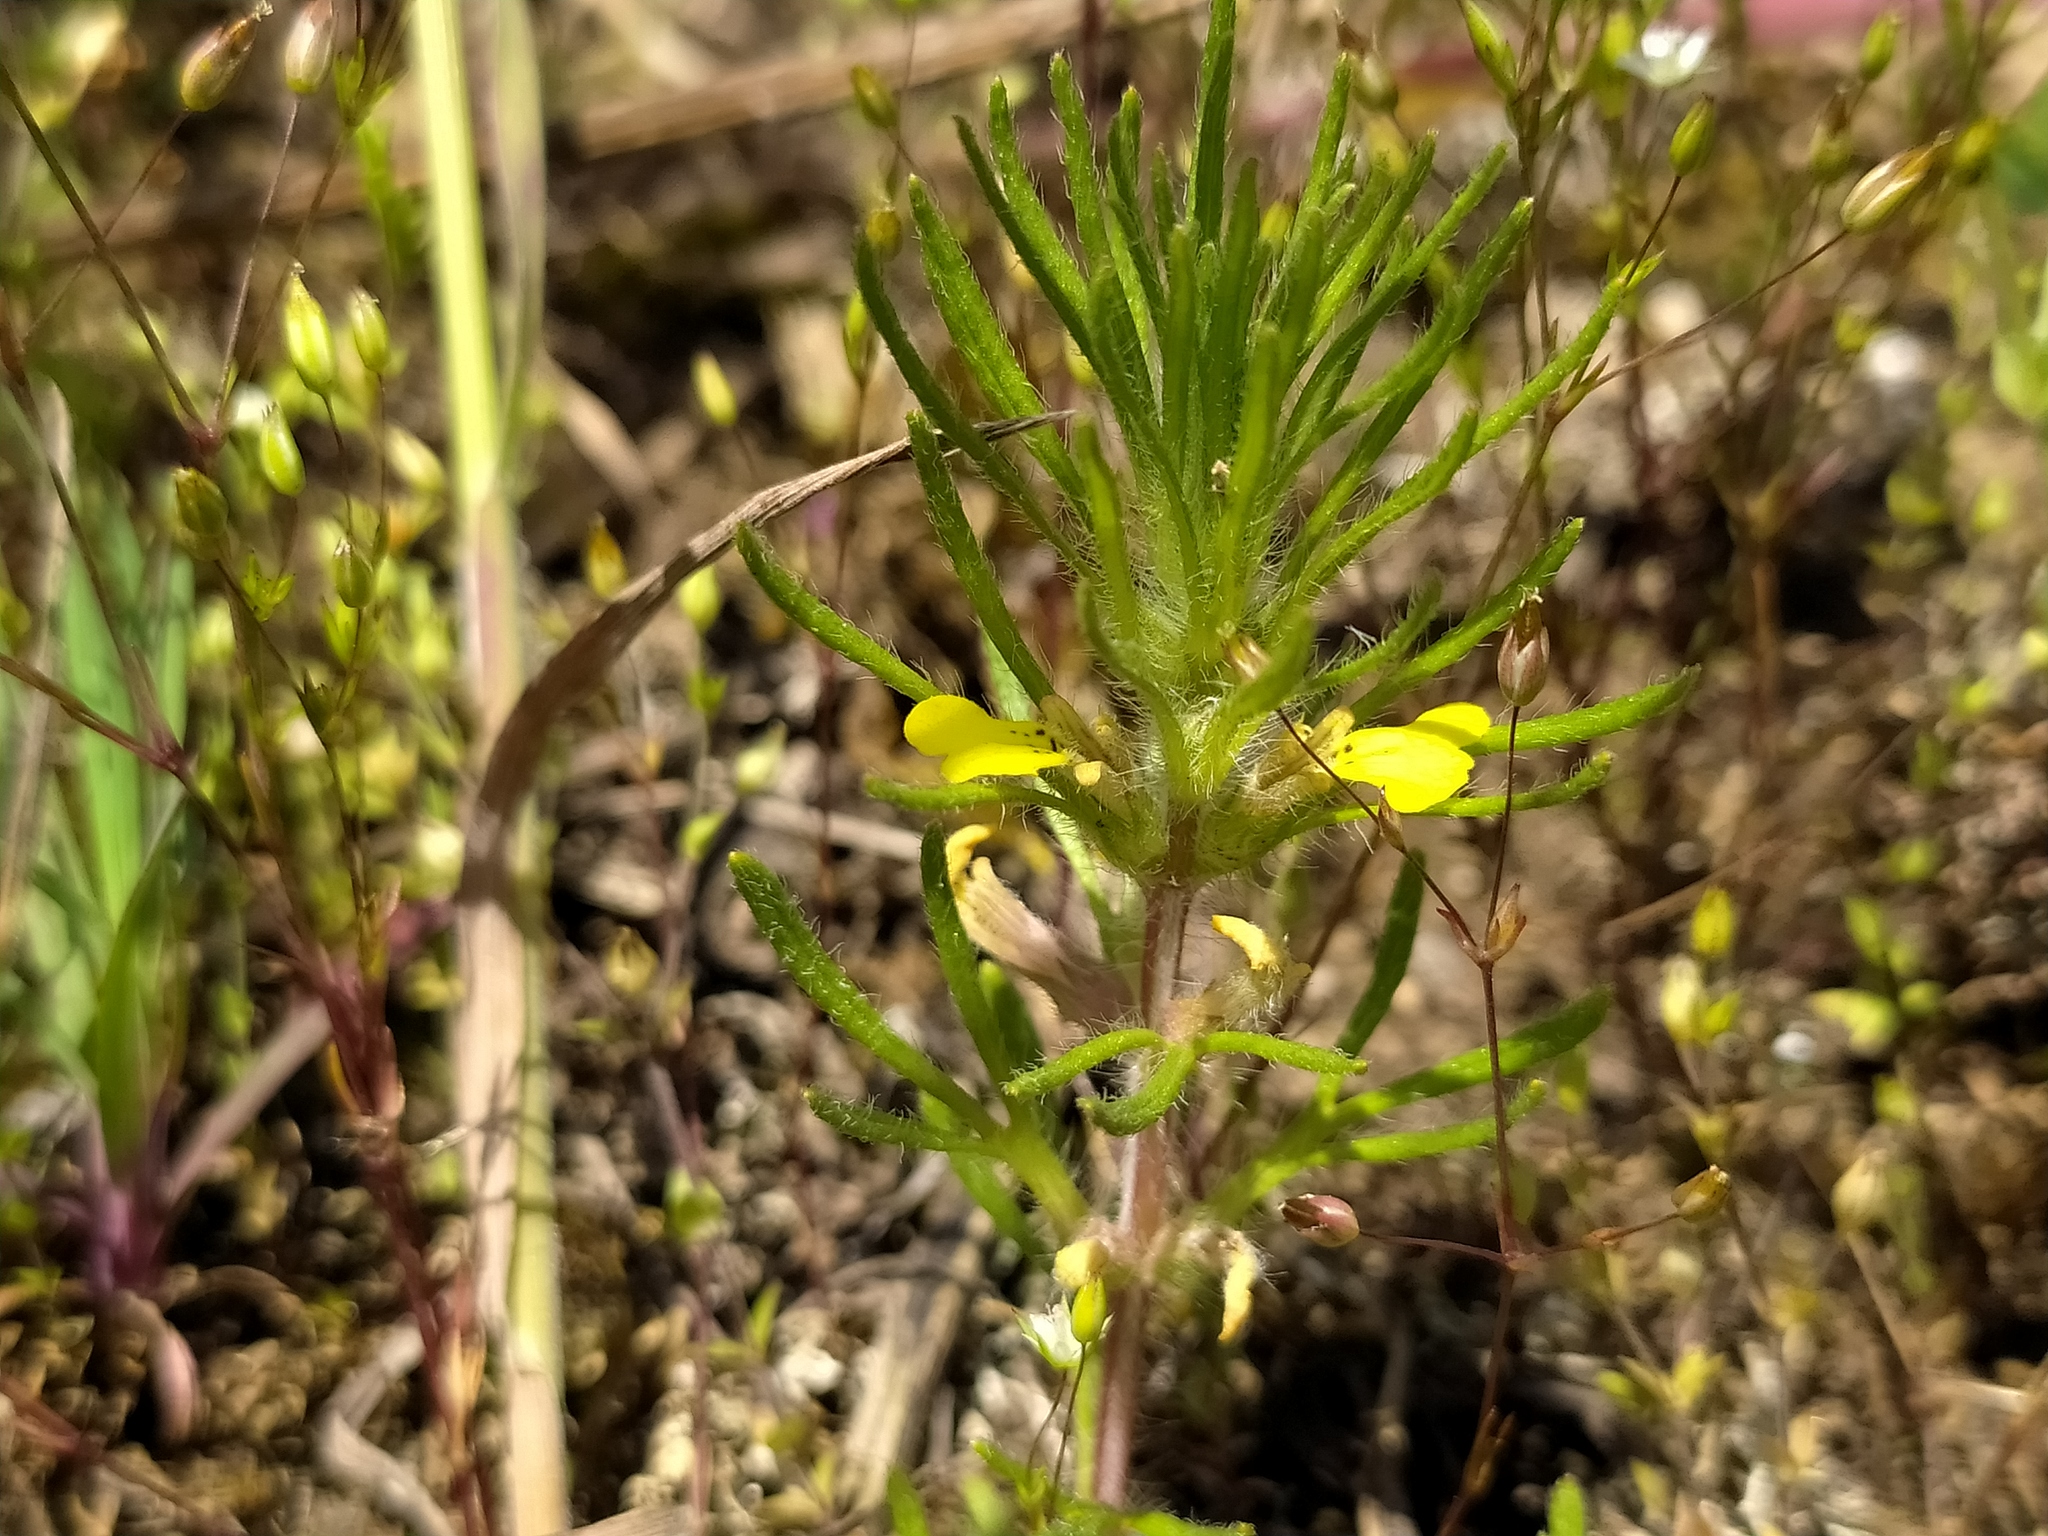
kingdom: Plantae
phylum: Tracheophyta
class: Magnoliopsida
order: Lamiales
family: Lamiaceae
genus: Ajuga
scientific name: Ajuga chamaepitys
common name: Ground-pine
